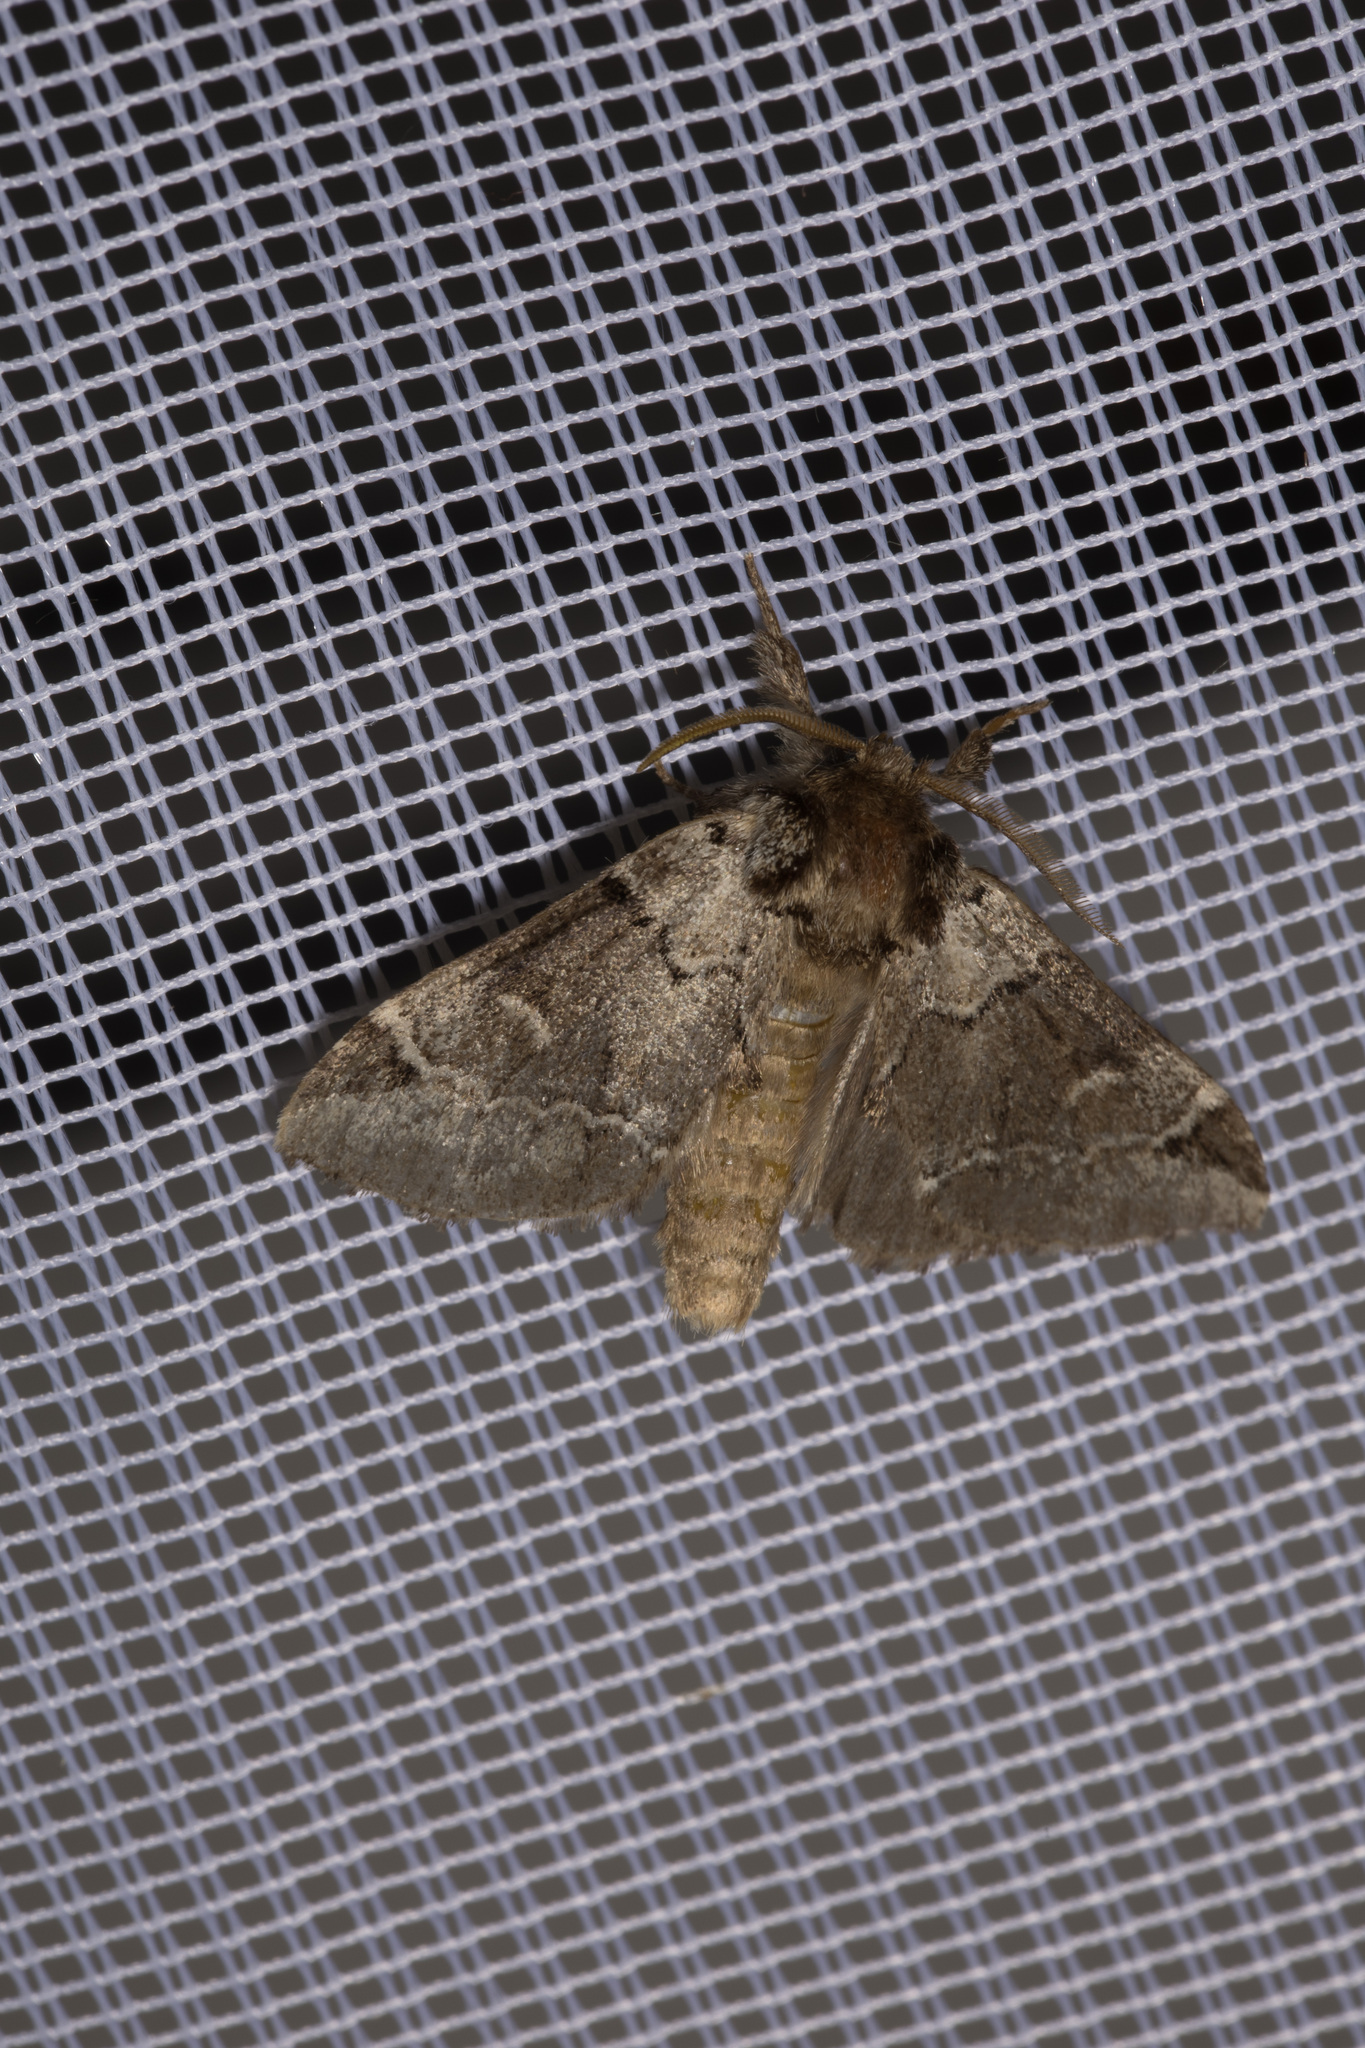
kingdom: Animalia
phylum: Arthropoda
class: Insecta
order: Lepidoptera
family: Notodontidae
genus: Drymonia
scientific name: Drymonia obliterata
